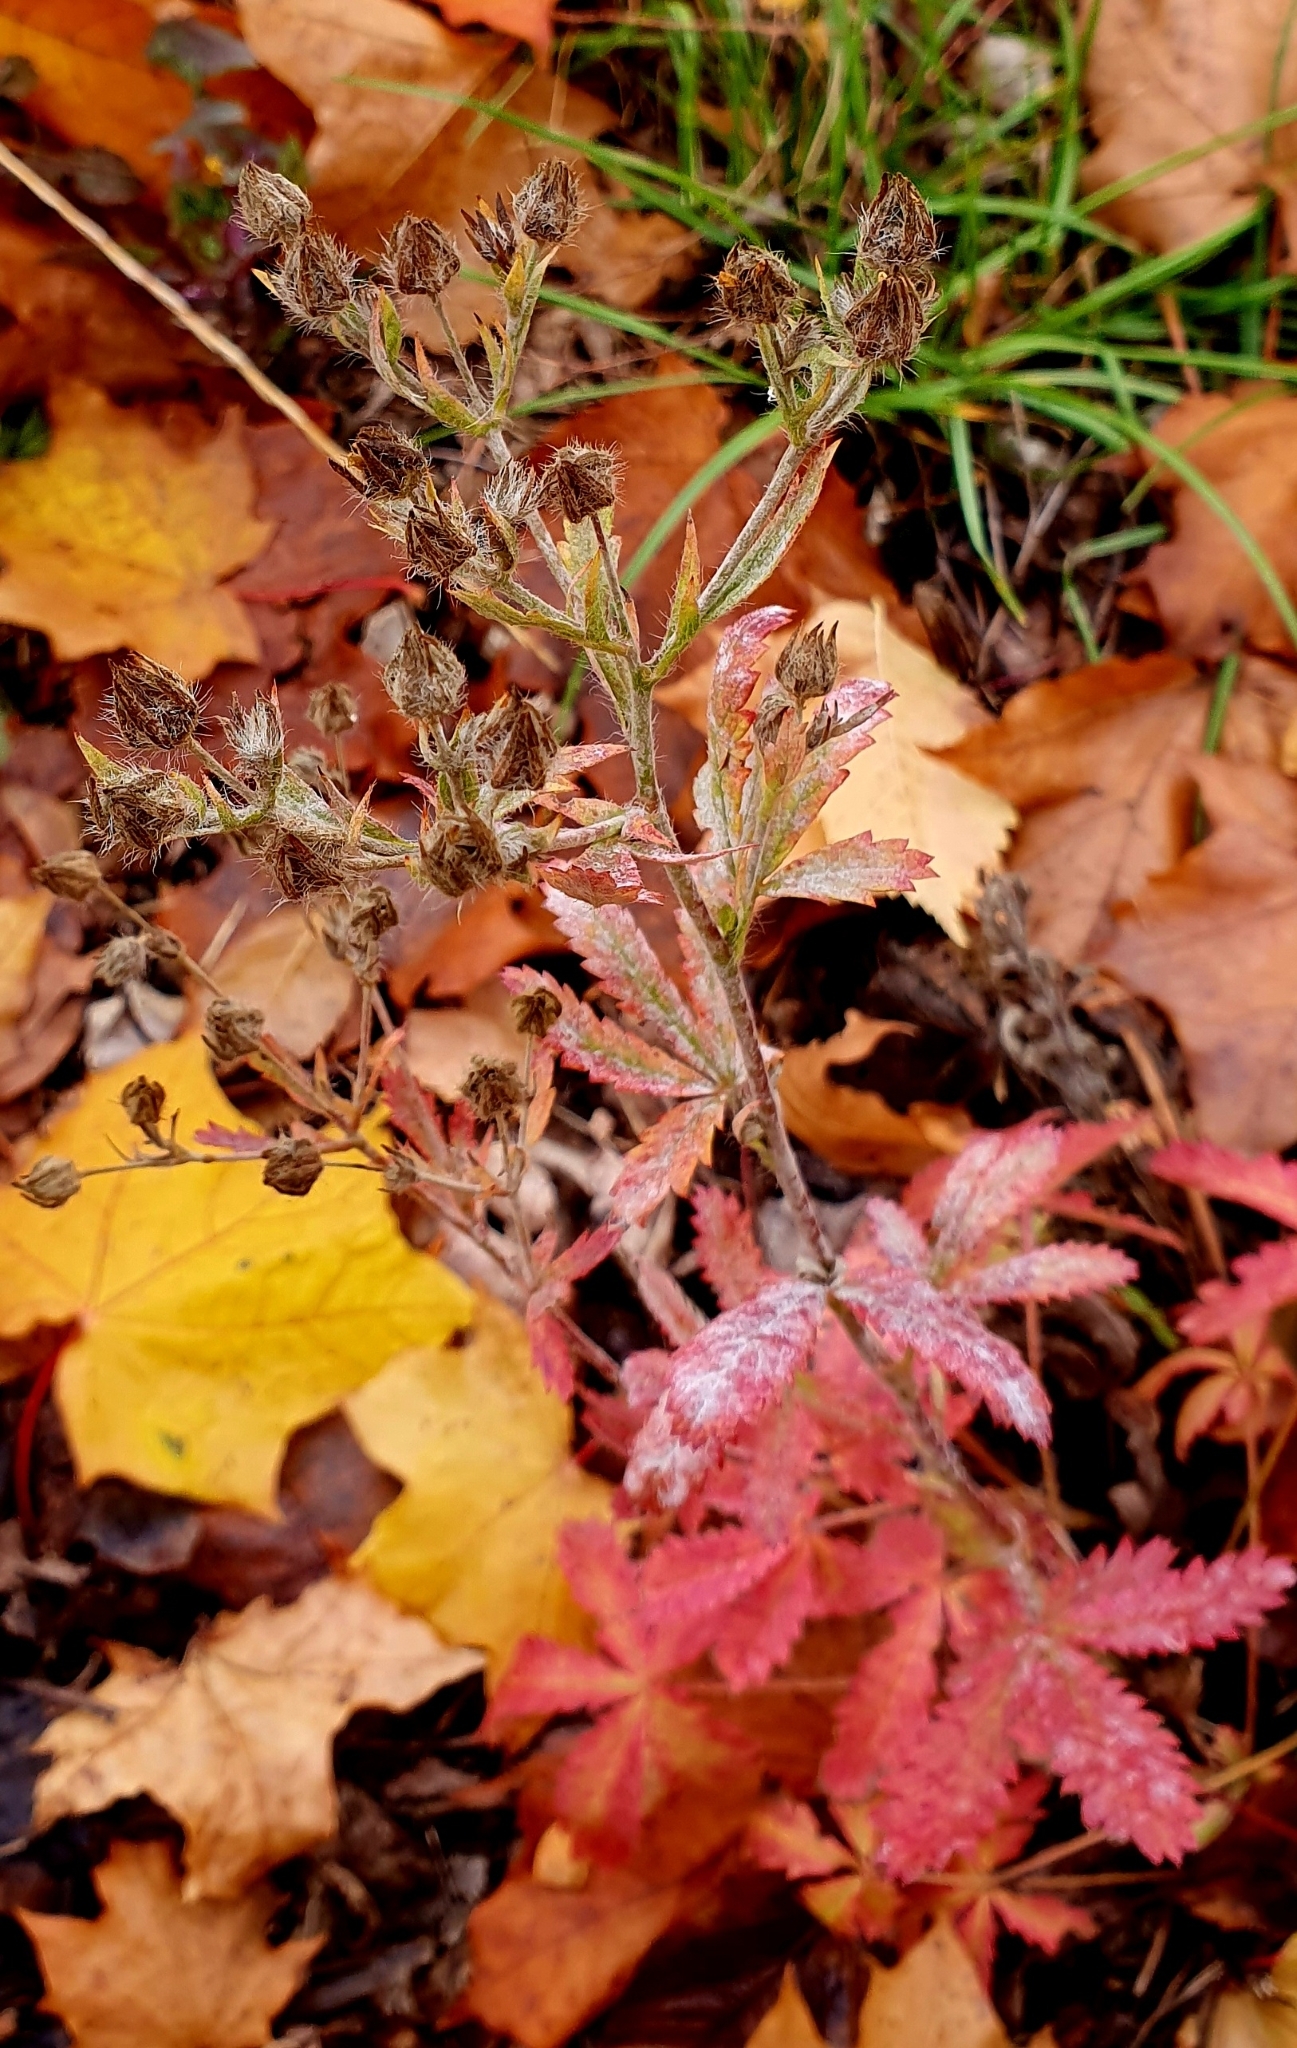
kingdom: Plantae
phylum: Tracheophyta
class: Magnoliopsida
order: Rosales
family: Rosaceae
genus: Potentilla
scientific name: Potentilla recta
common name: Sulphur cinquefoil
